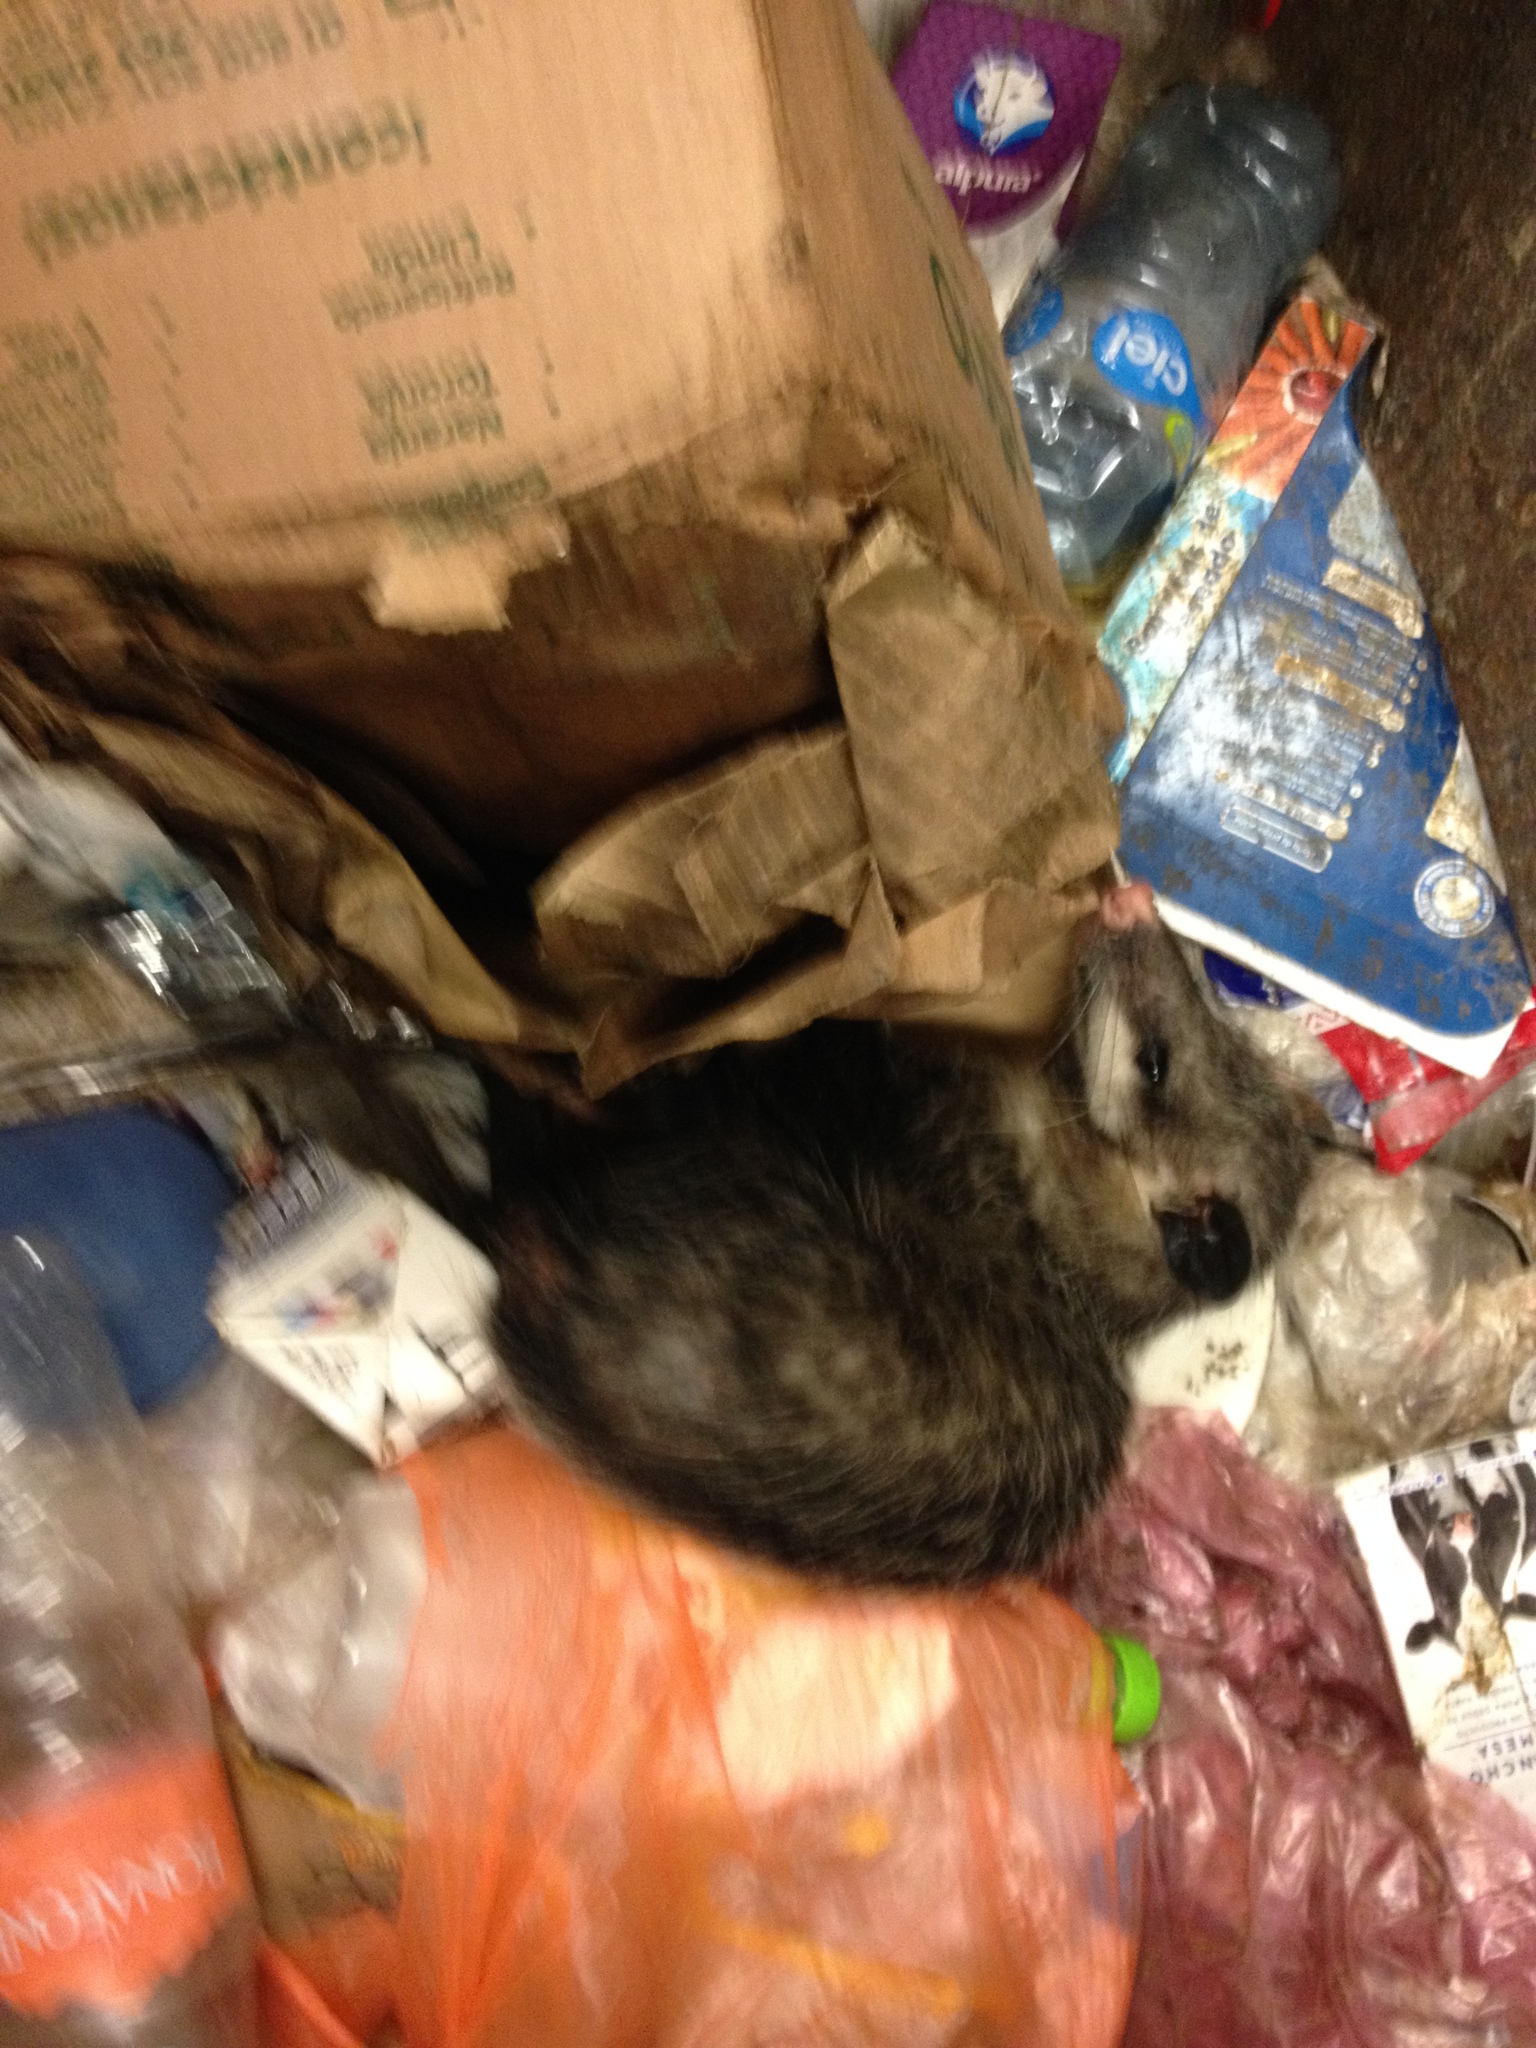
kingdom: Animalia
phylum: Chordata
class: Mammalia
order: Didelphimorphia
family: Didelphidae
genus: Didelphis
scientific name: Didelphis virginiana
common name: Virginia opossum
